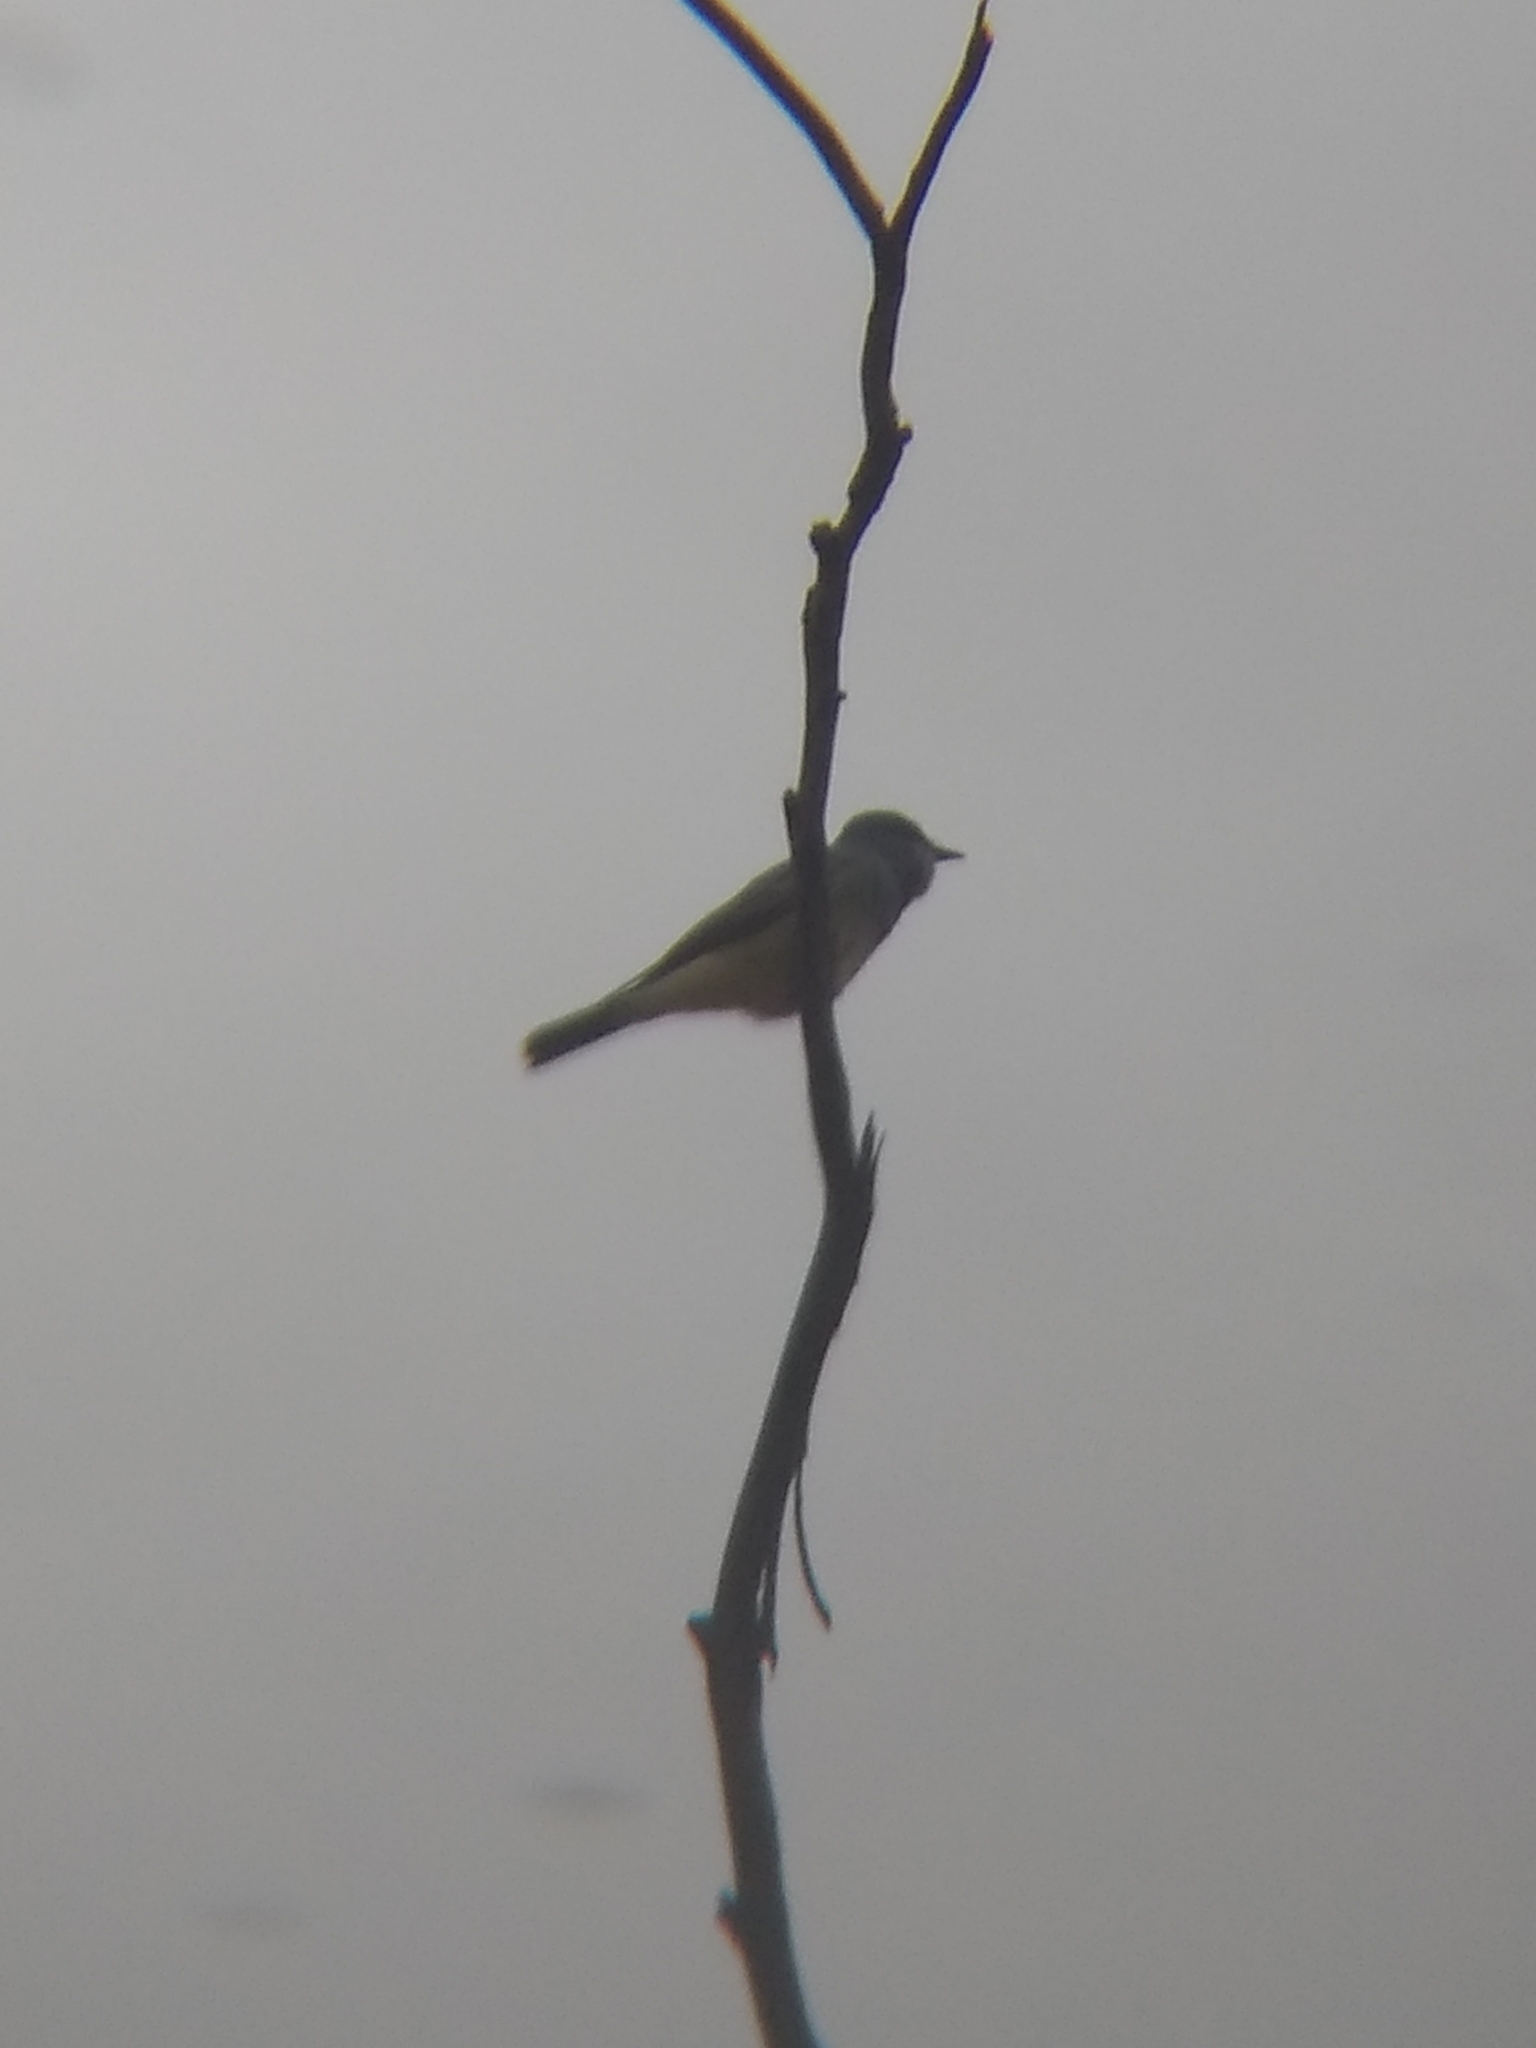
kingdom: Animalia
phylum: Chordata
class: Aves
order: Passeriformes
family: Tyrannidae
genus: Tyrannus
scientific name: Tyrannus vociferans
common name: Cassin's kingbird
